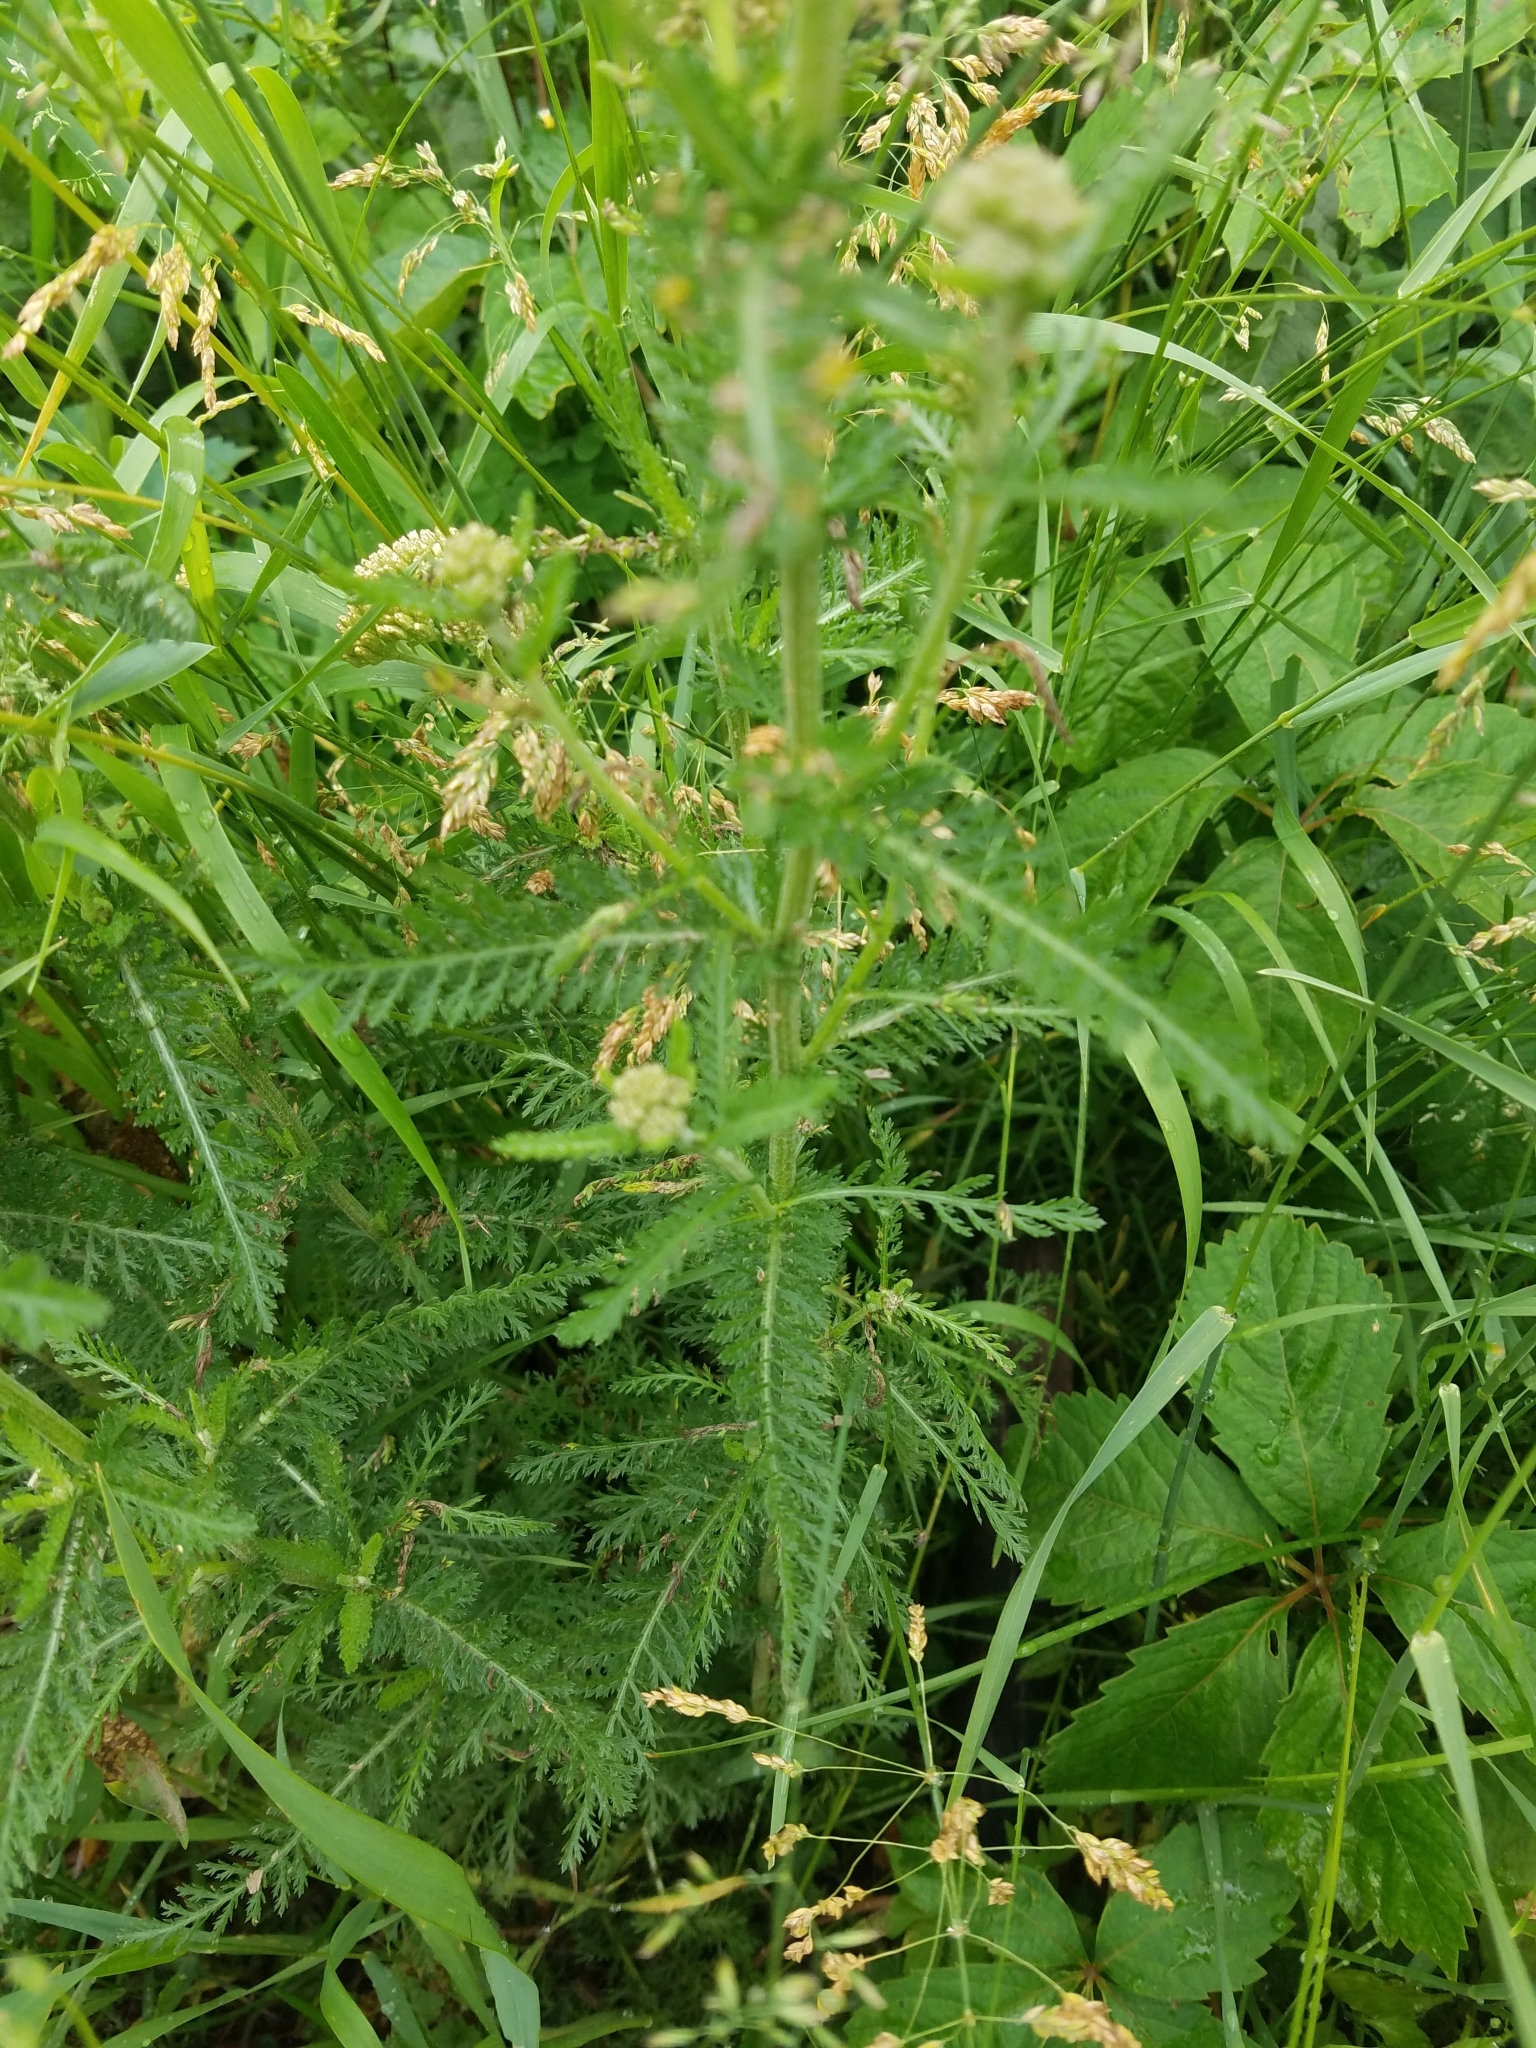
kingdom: Plantae
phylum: Tracheophyta
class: Magnoliopsida
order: Asterales
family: Asteraceae
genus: Achillea
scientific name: Achillea millefolium
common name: Yarrow
